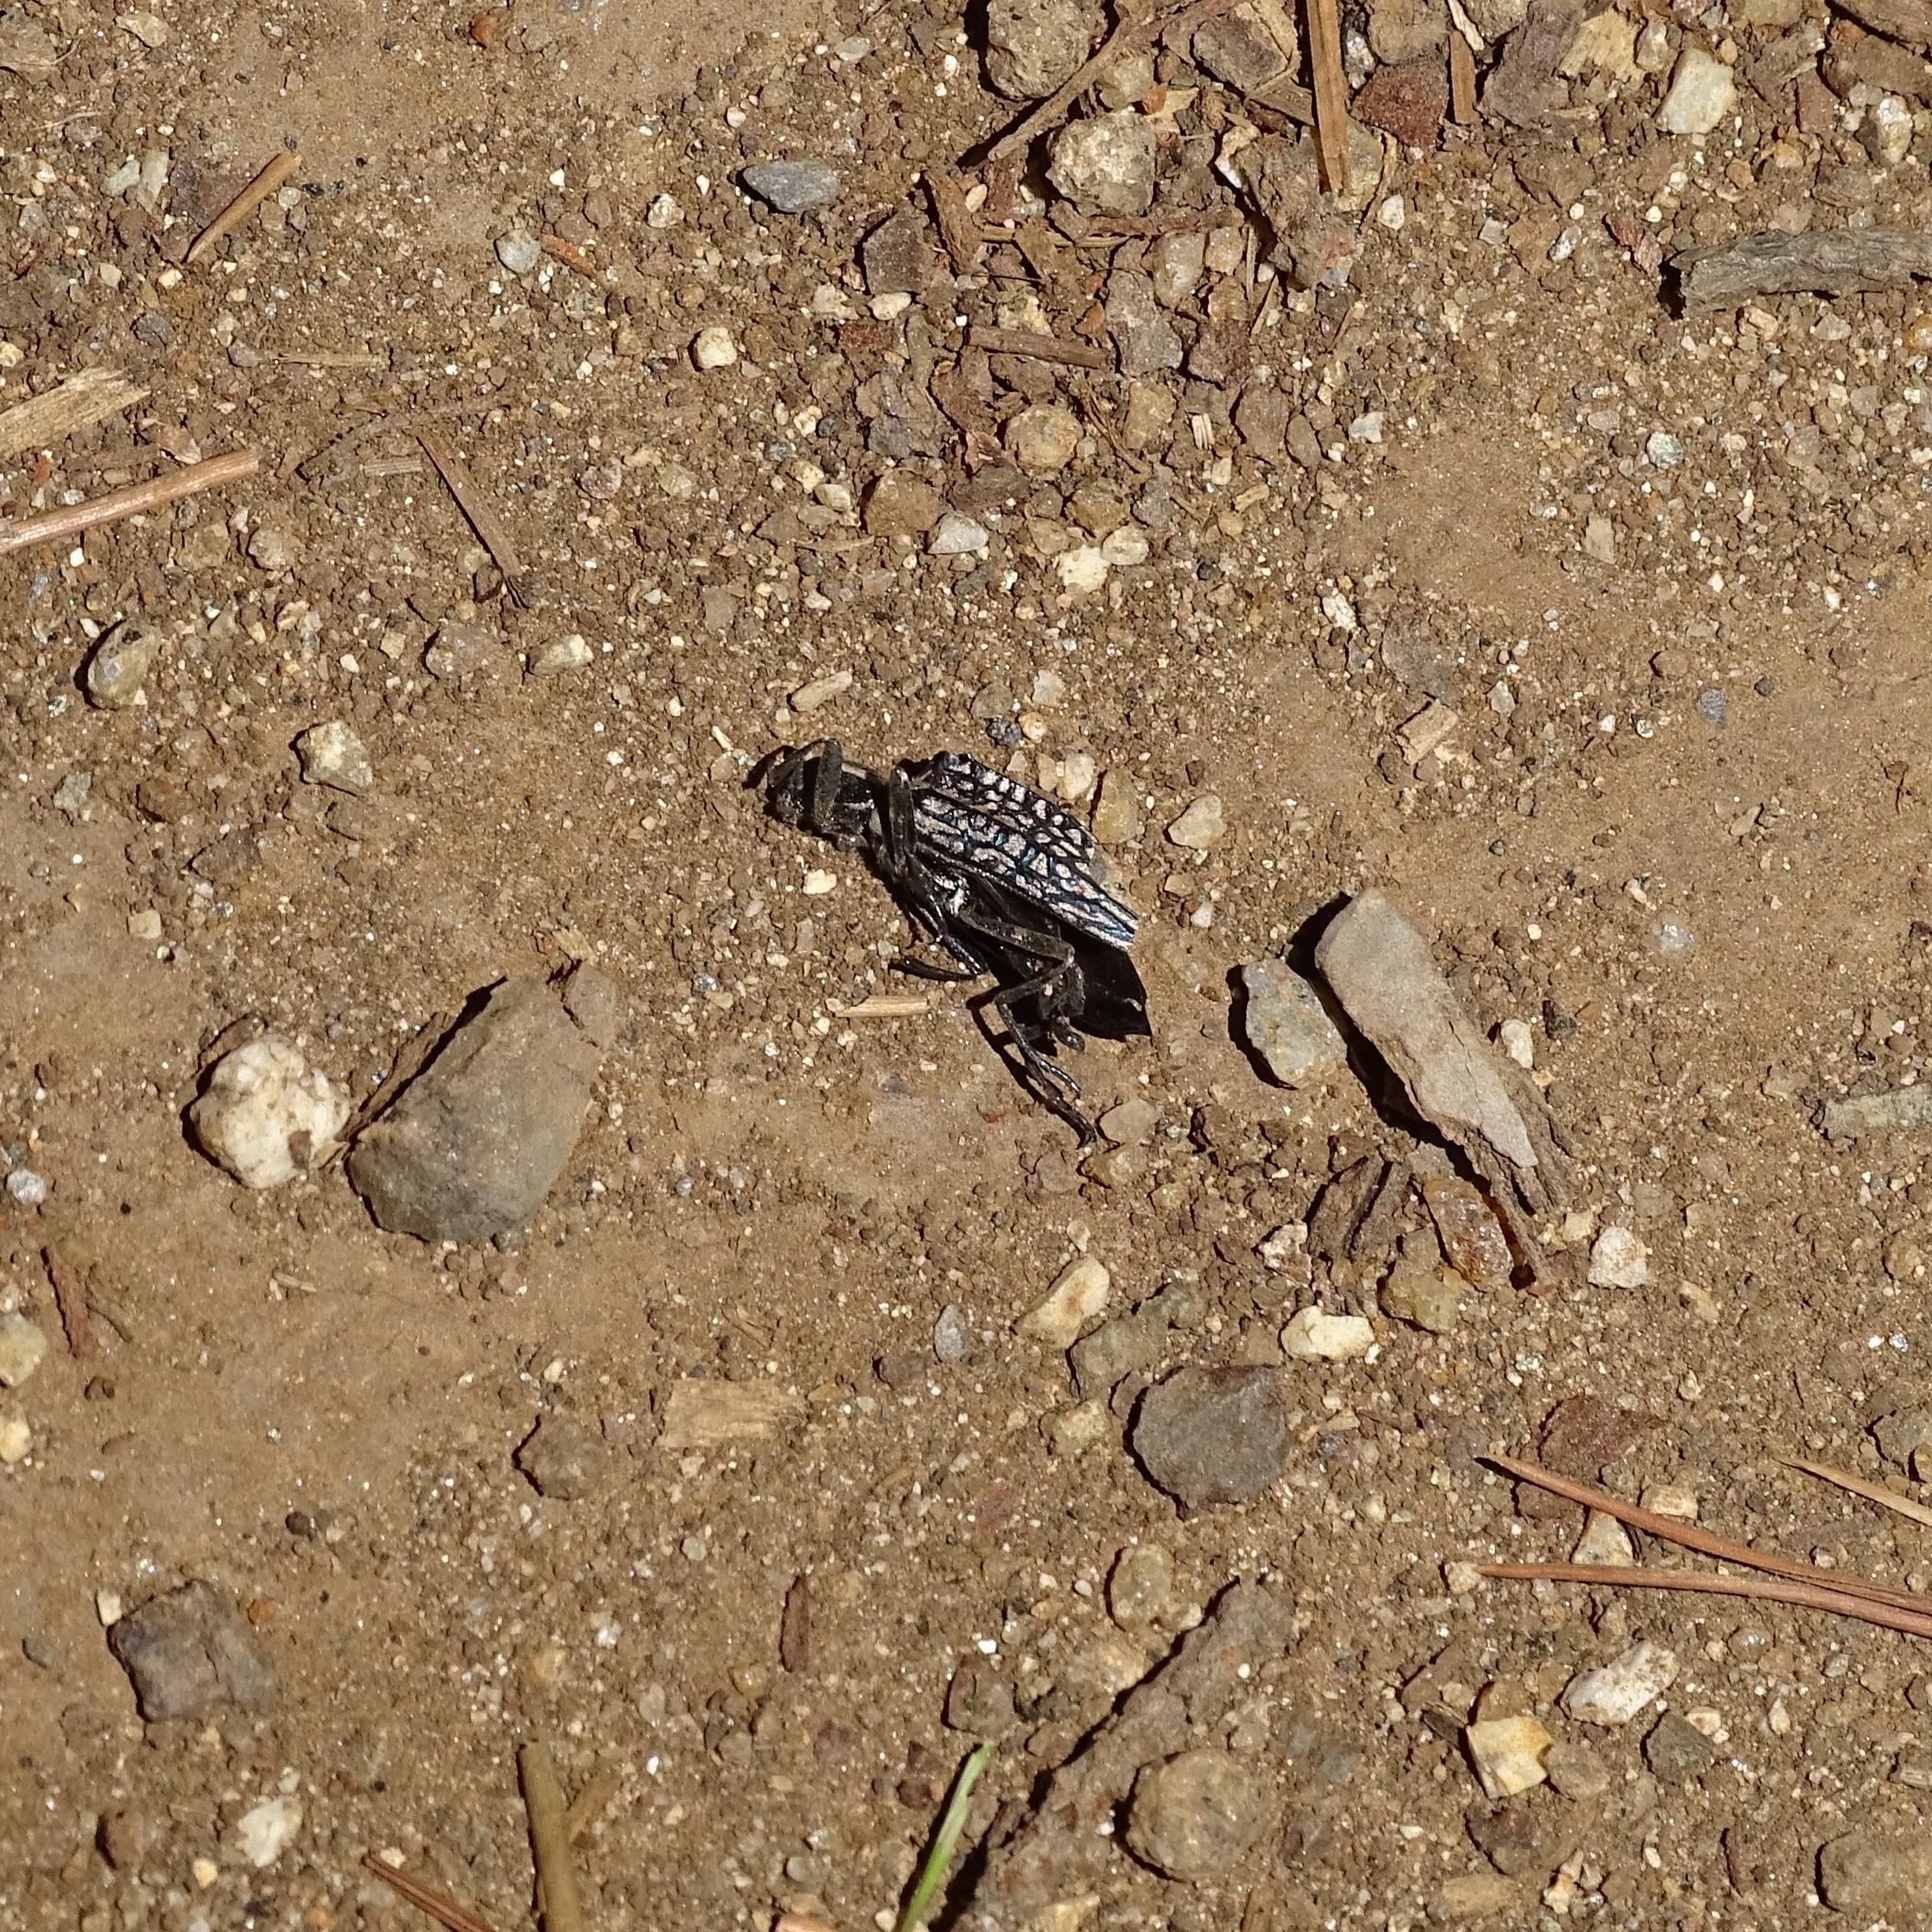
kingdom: Animalia
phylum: Arthropoda
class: Insecta
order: Coleoptera
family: Tenebrionidae
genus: Homocyrtus
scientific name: Homocyrtus
